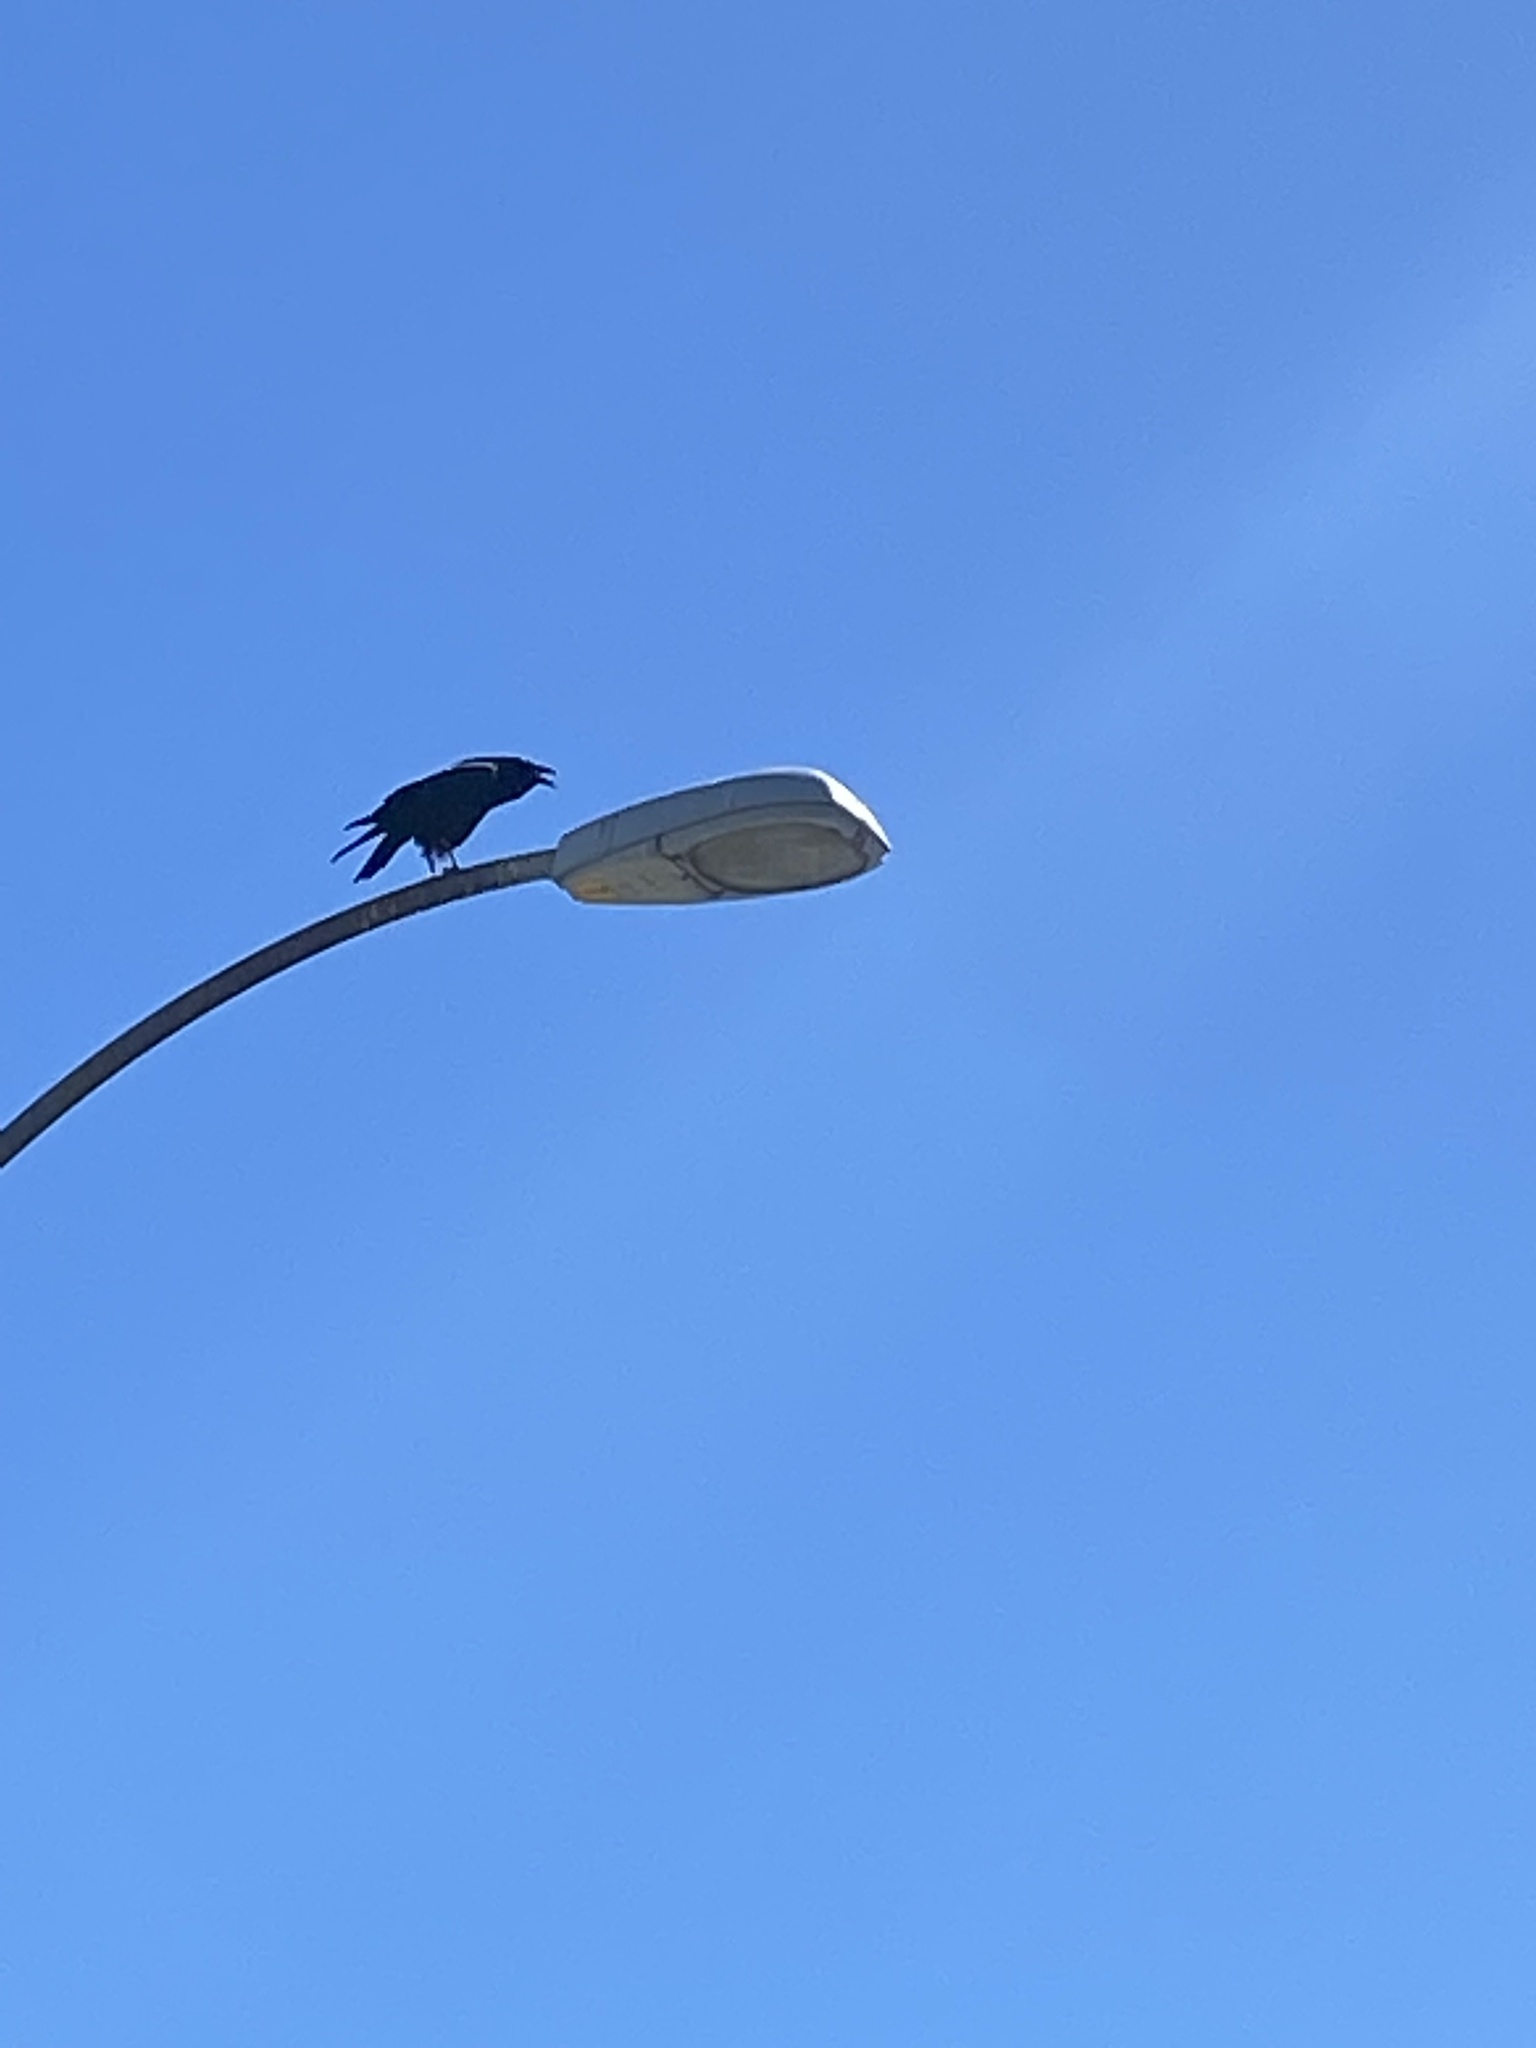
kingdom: Animalia
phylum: Chordata
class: Aves
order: Passeriformes
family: Corvidae
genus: Corvus
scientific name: Corvus corax
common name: Common raven
